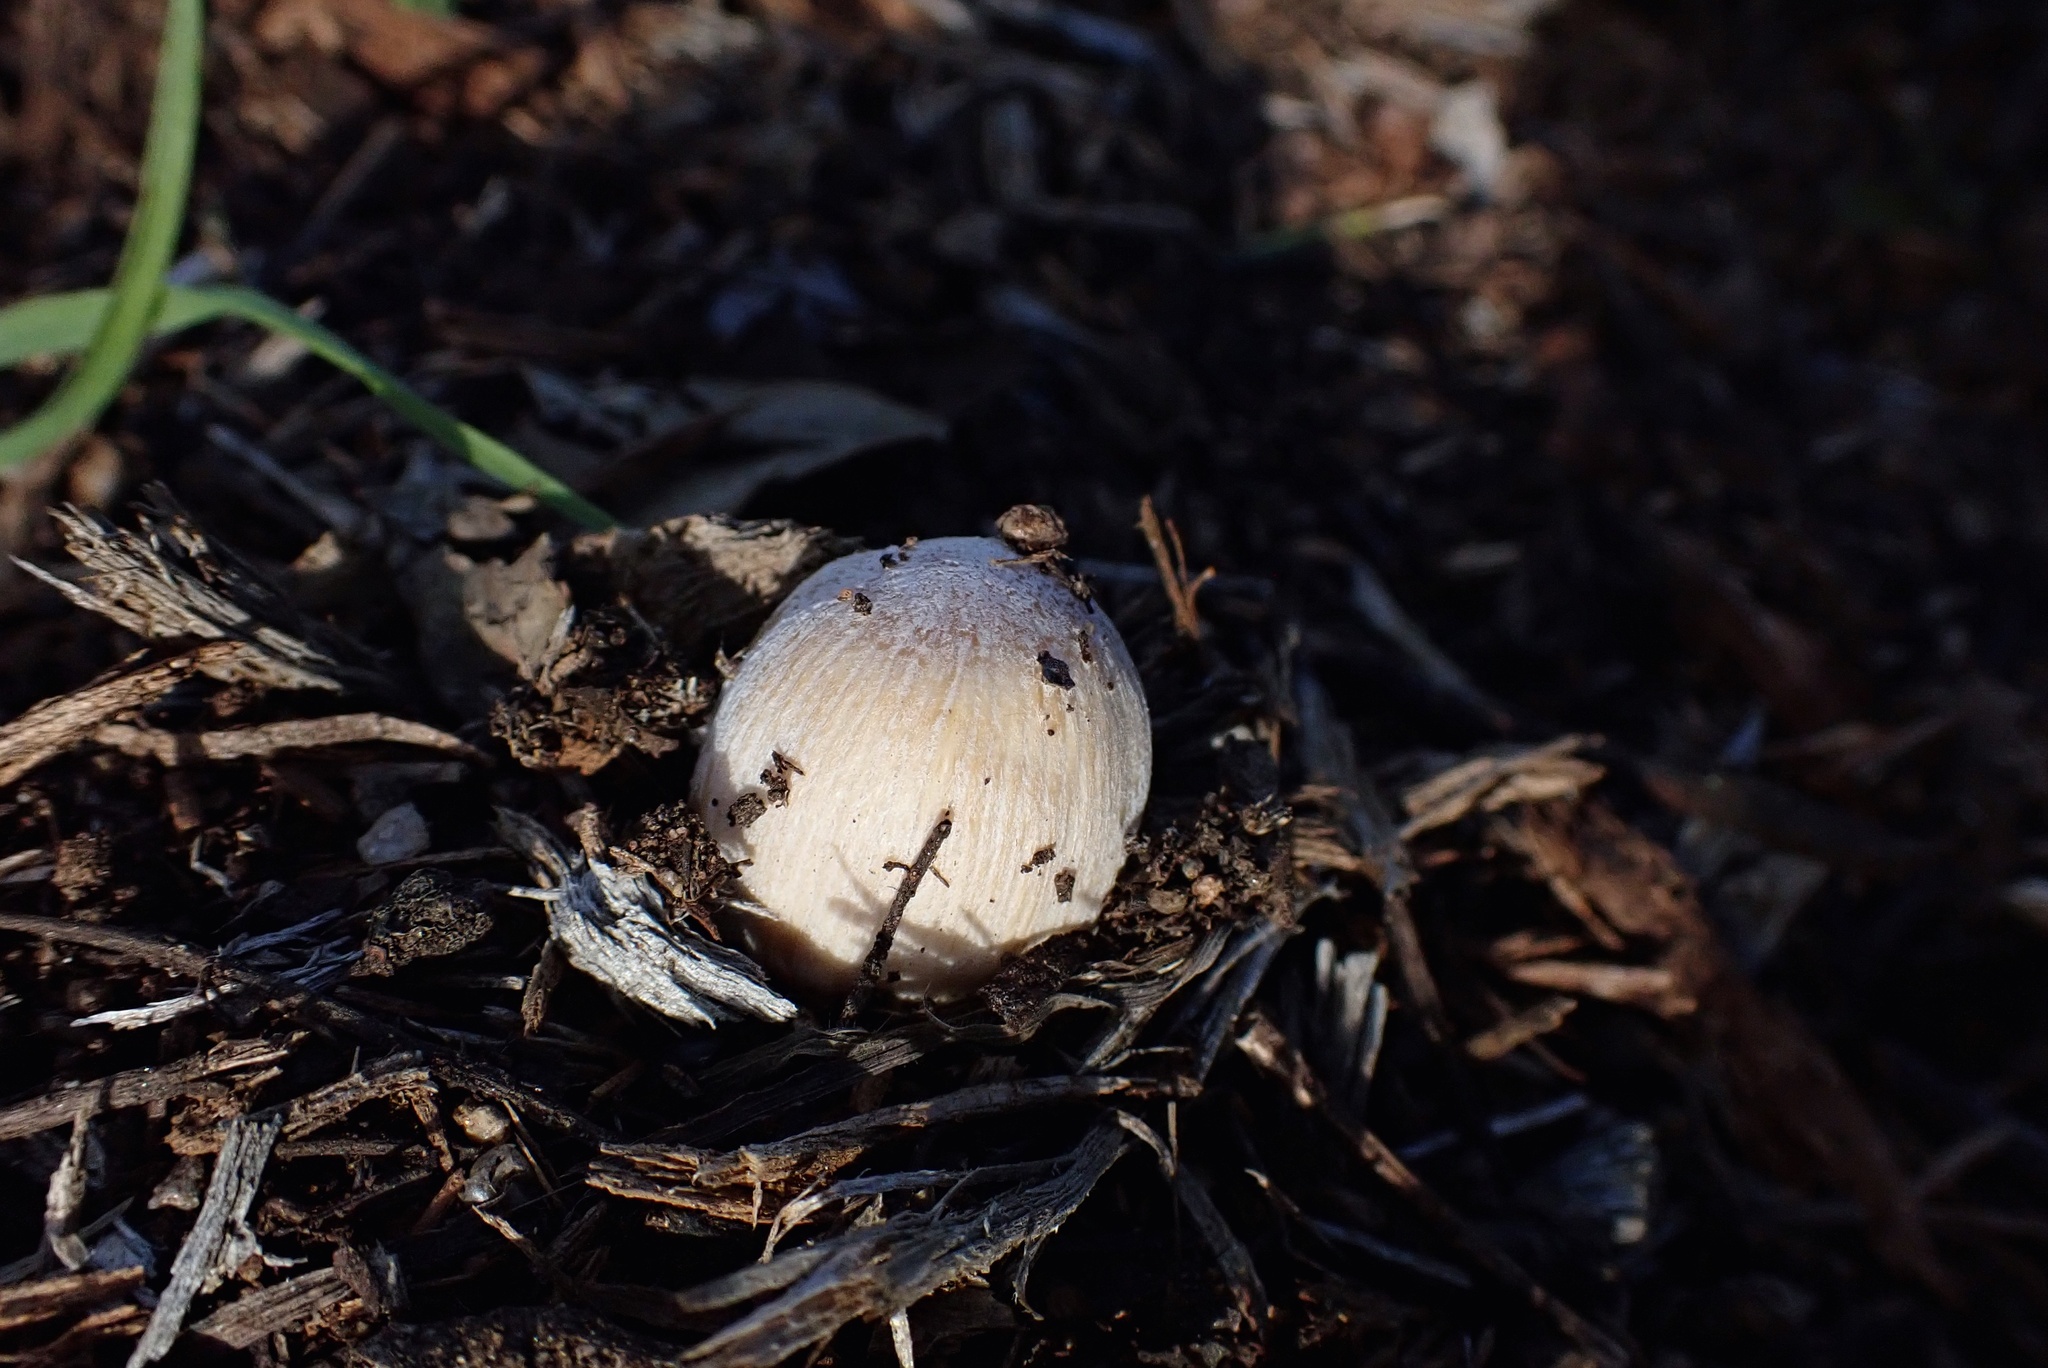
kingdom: Fungi
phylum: Basidiomycota
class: Agaricomycetes
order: Agaricales
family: Psathyrellaceae
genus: Coprinellus
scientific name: Coprinellus flocculosus
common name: Flocculose inkcap
